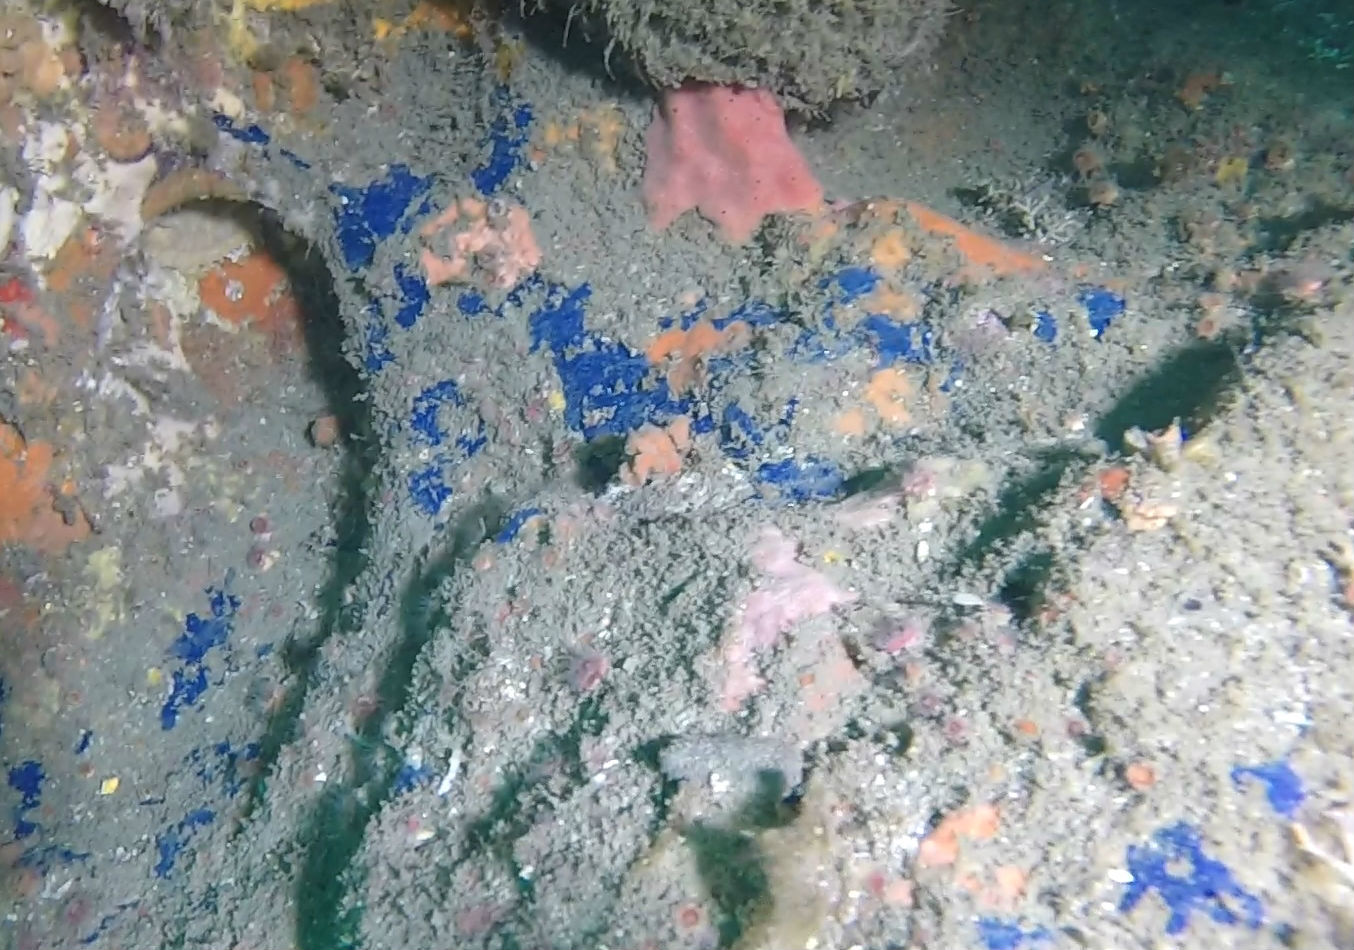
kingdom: Animalia
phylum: Porifera
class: Demospongiae
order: Poecilosclerida
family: Hymedesmiidae
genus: Acanthancora
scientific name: Acanthancora cyanocrypta
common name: Cobalt blue horny sponge
